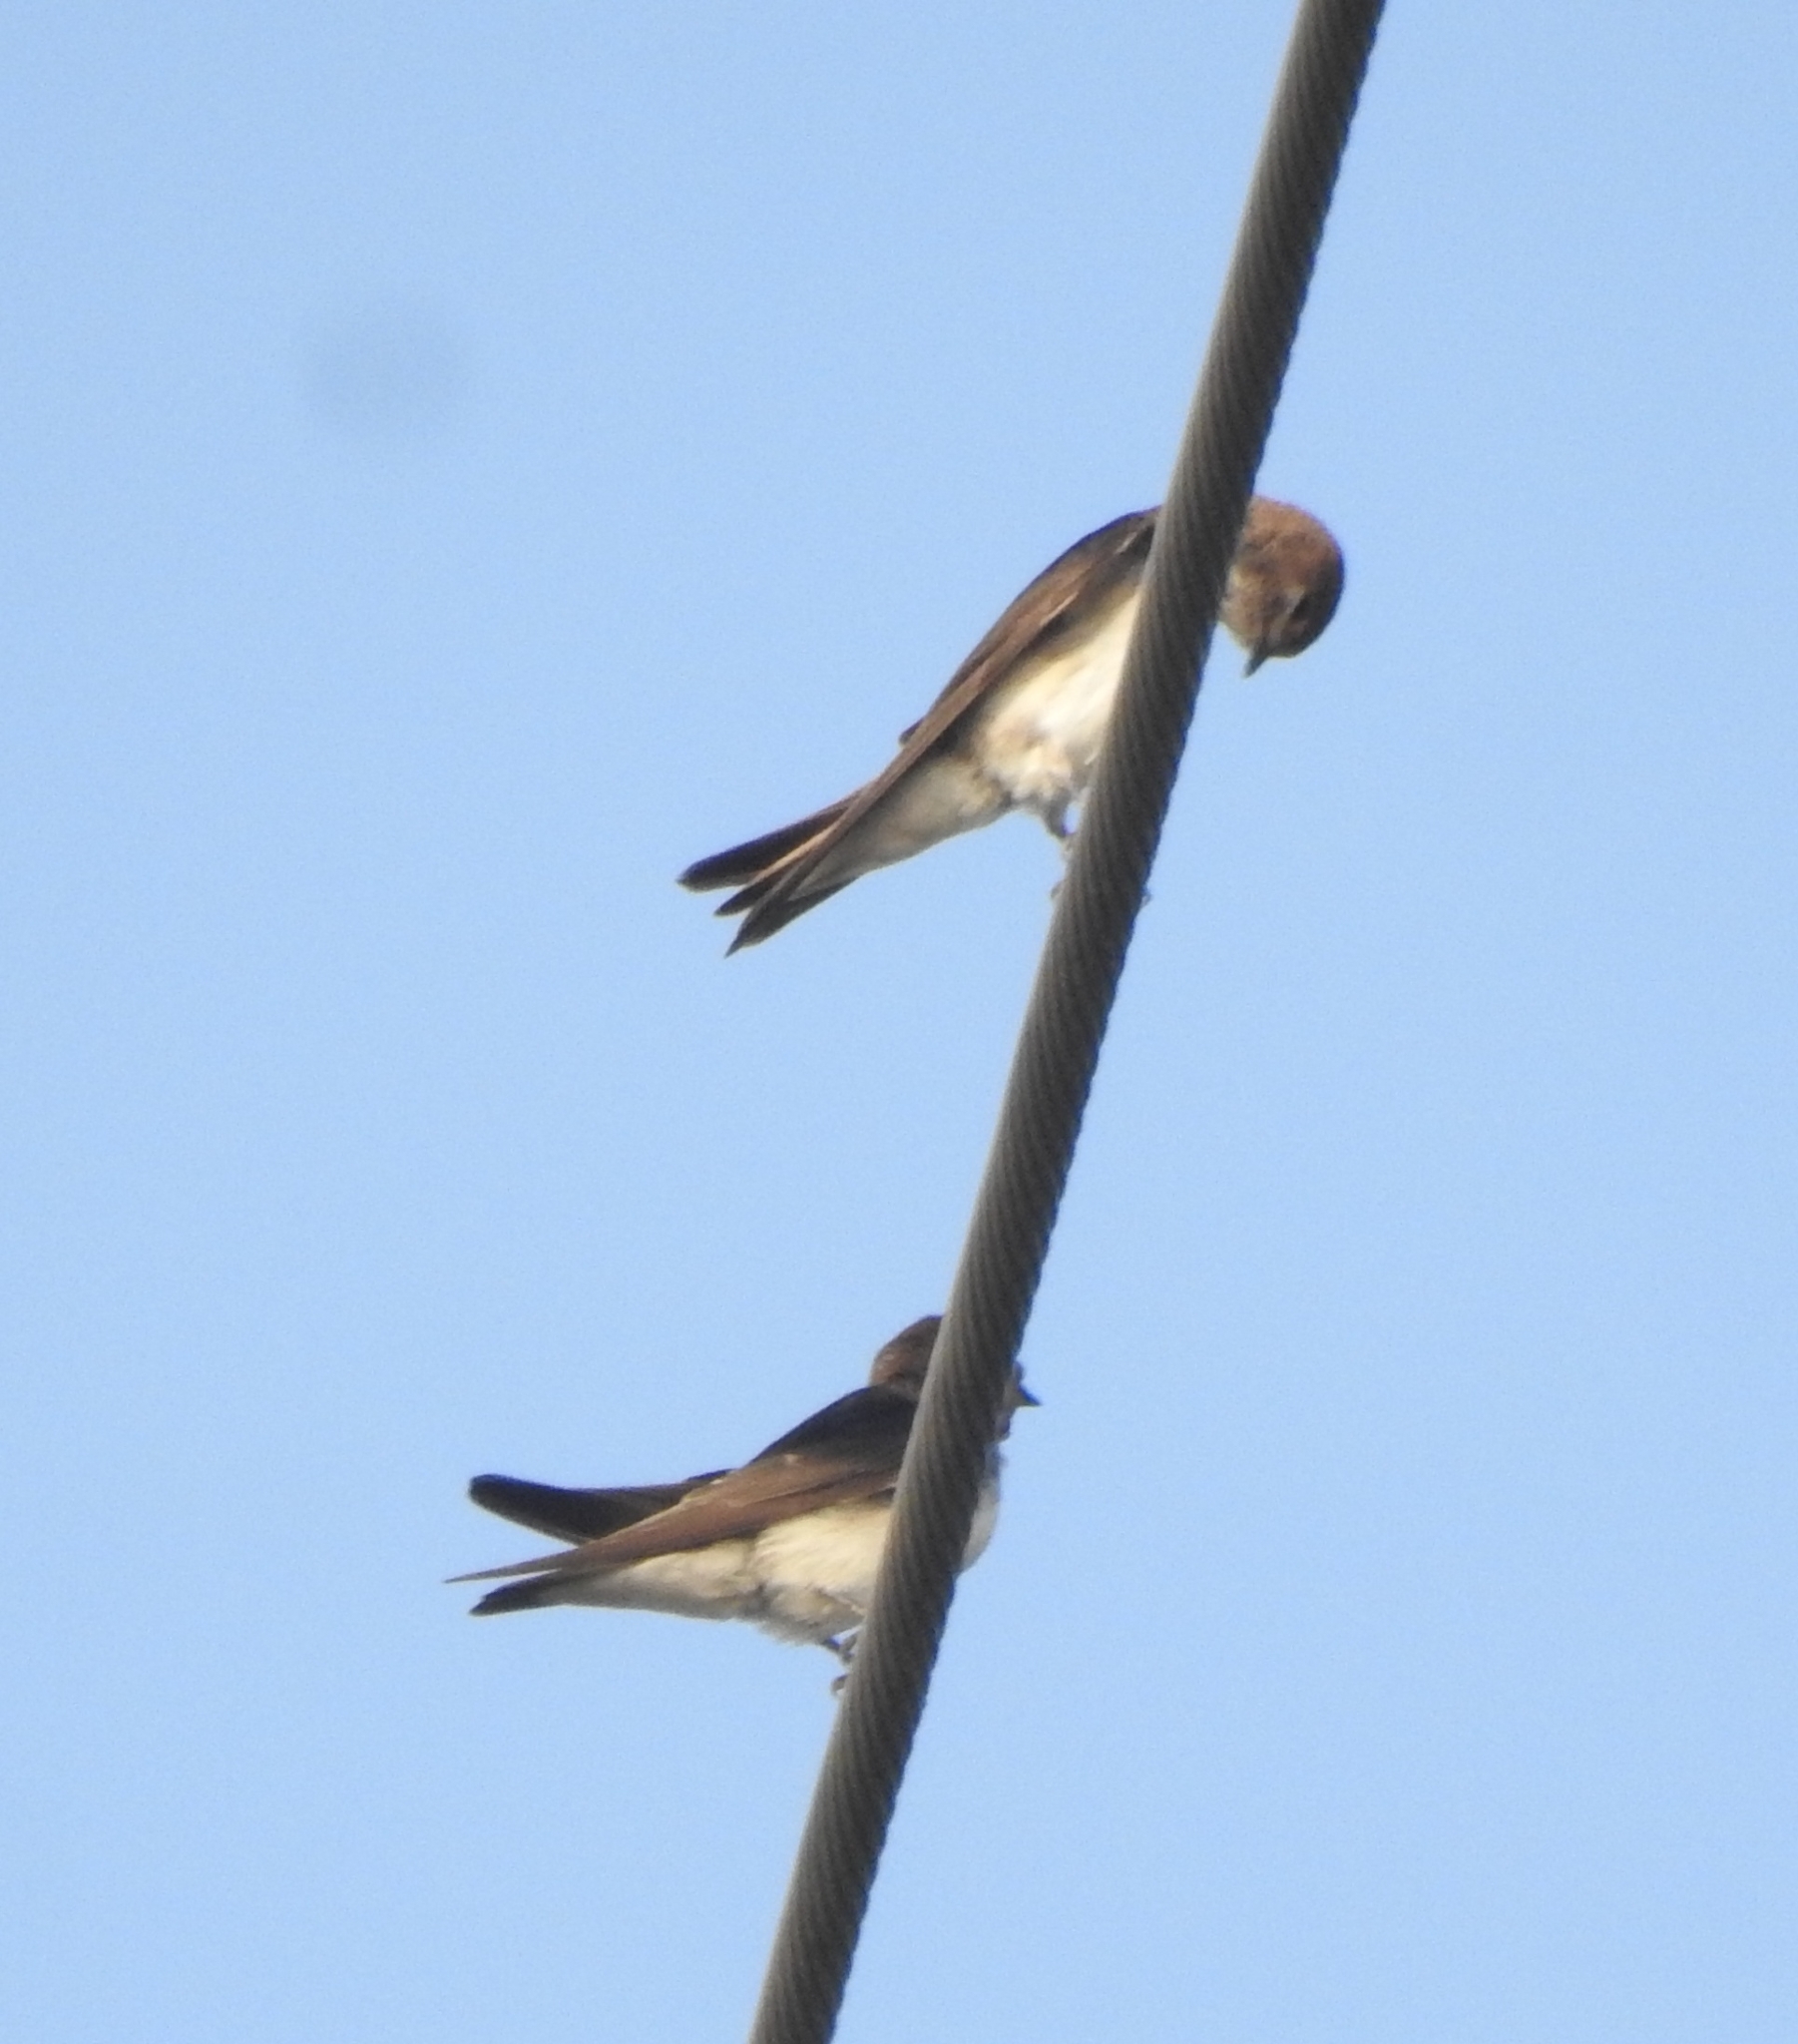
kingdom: Animalia
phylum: Chordata
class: Aves
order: Passeriformes
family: Hirundinidae
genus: Petrochelidon
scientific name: Petrochelidon fluvicola
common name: Streak-throated swallow
